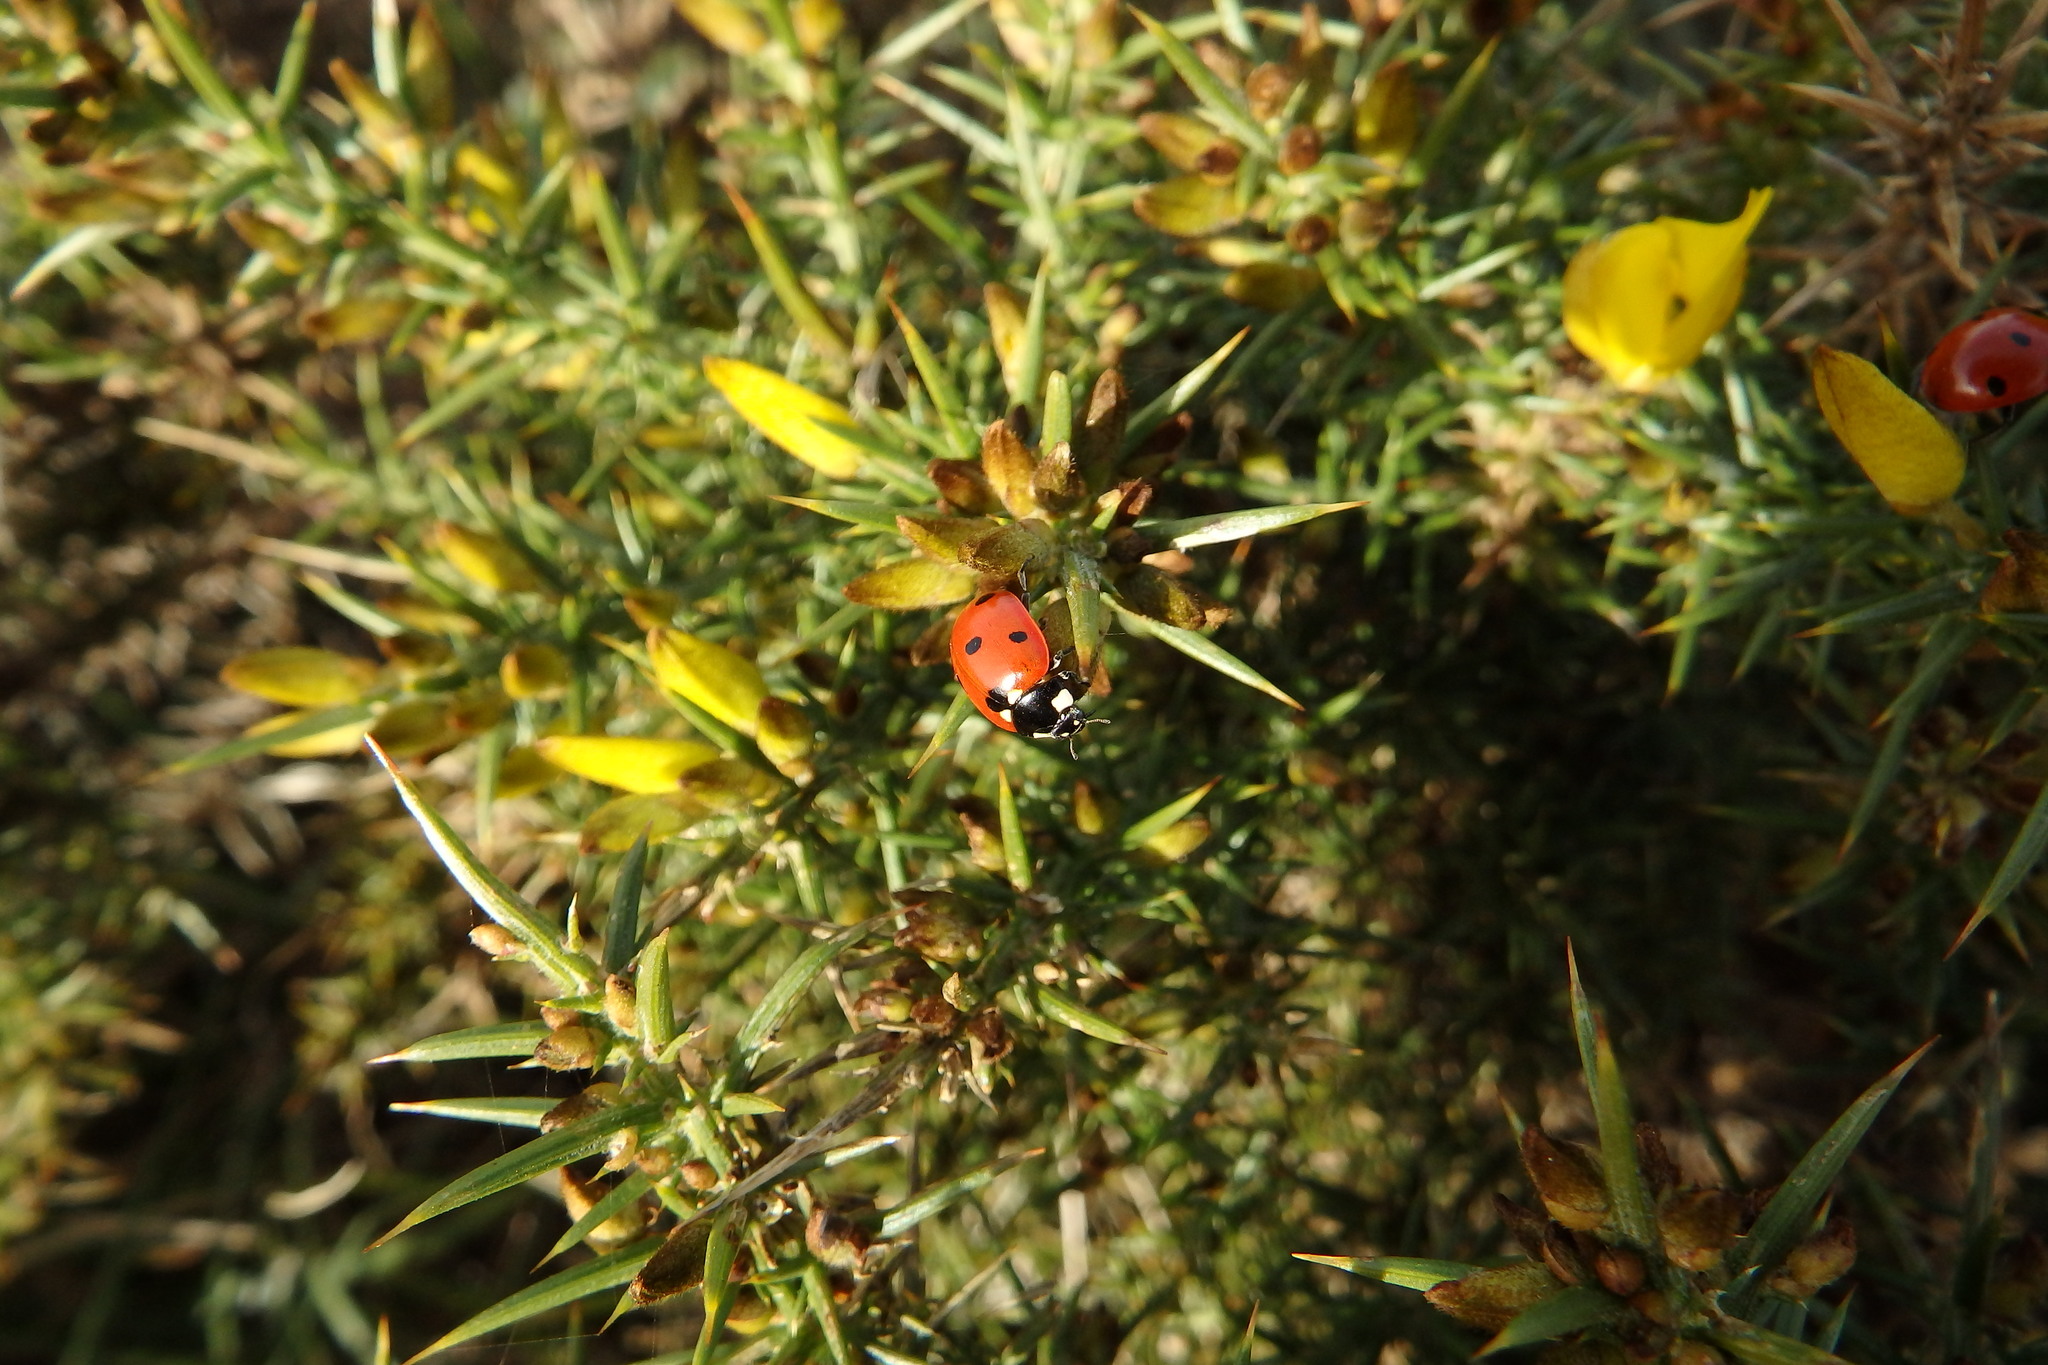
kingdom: Animalia
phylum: Arthropoda
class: Insecta
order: Coleoptera
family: Coccinellidae
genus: Coccinella
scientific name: Coccinella septempunctata
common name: Sevenspotted lady beetle
